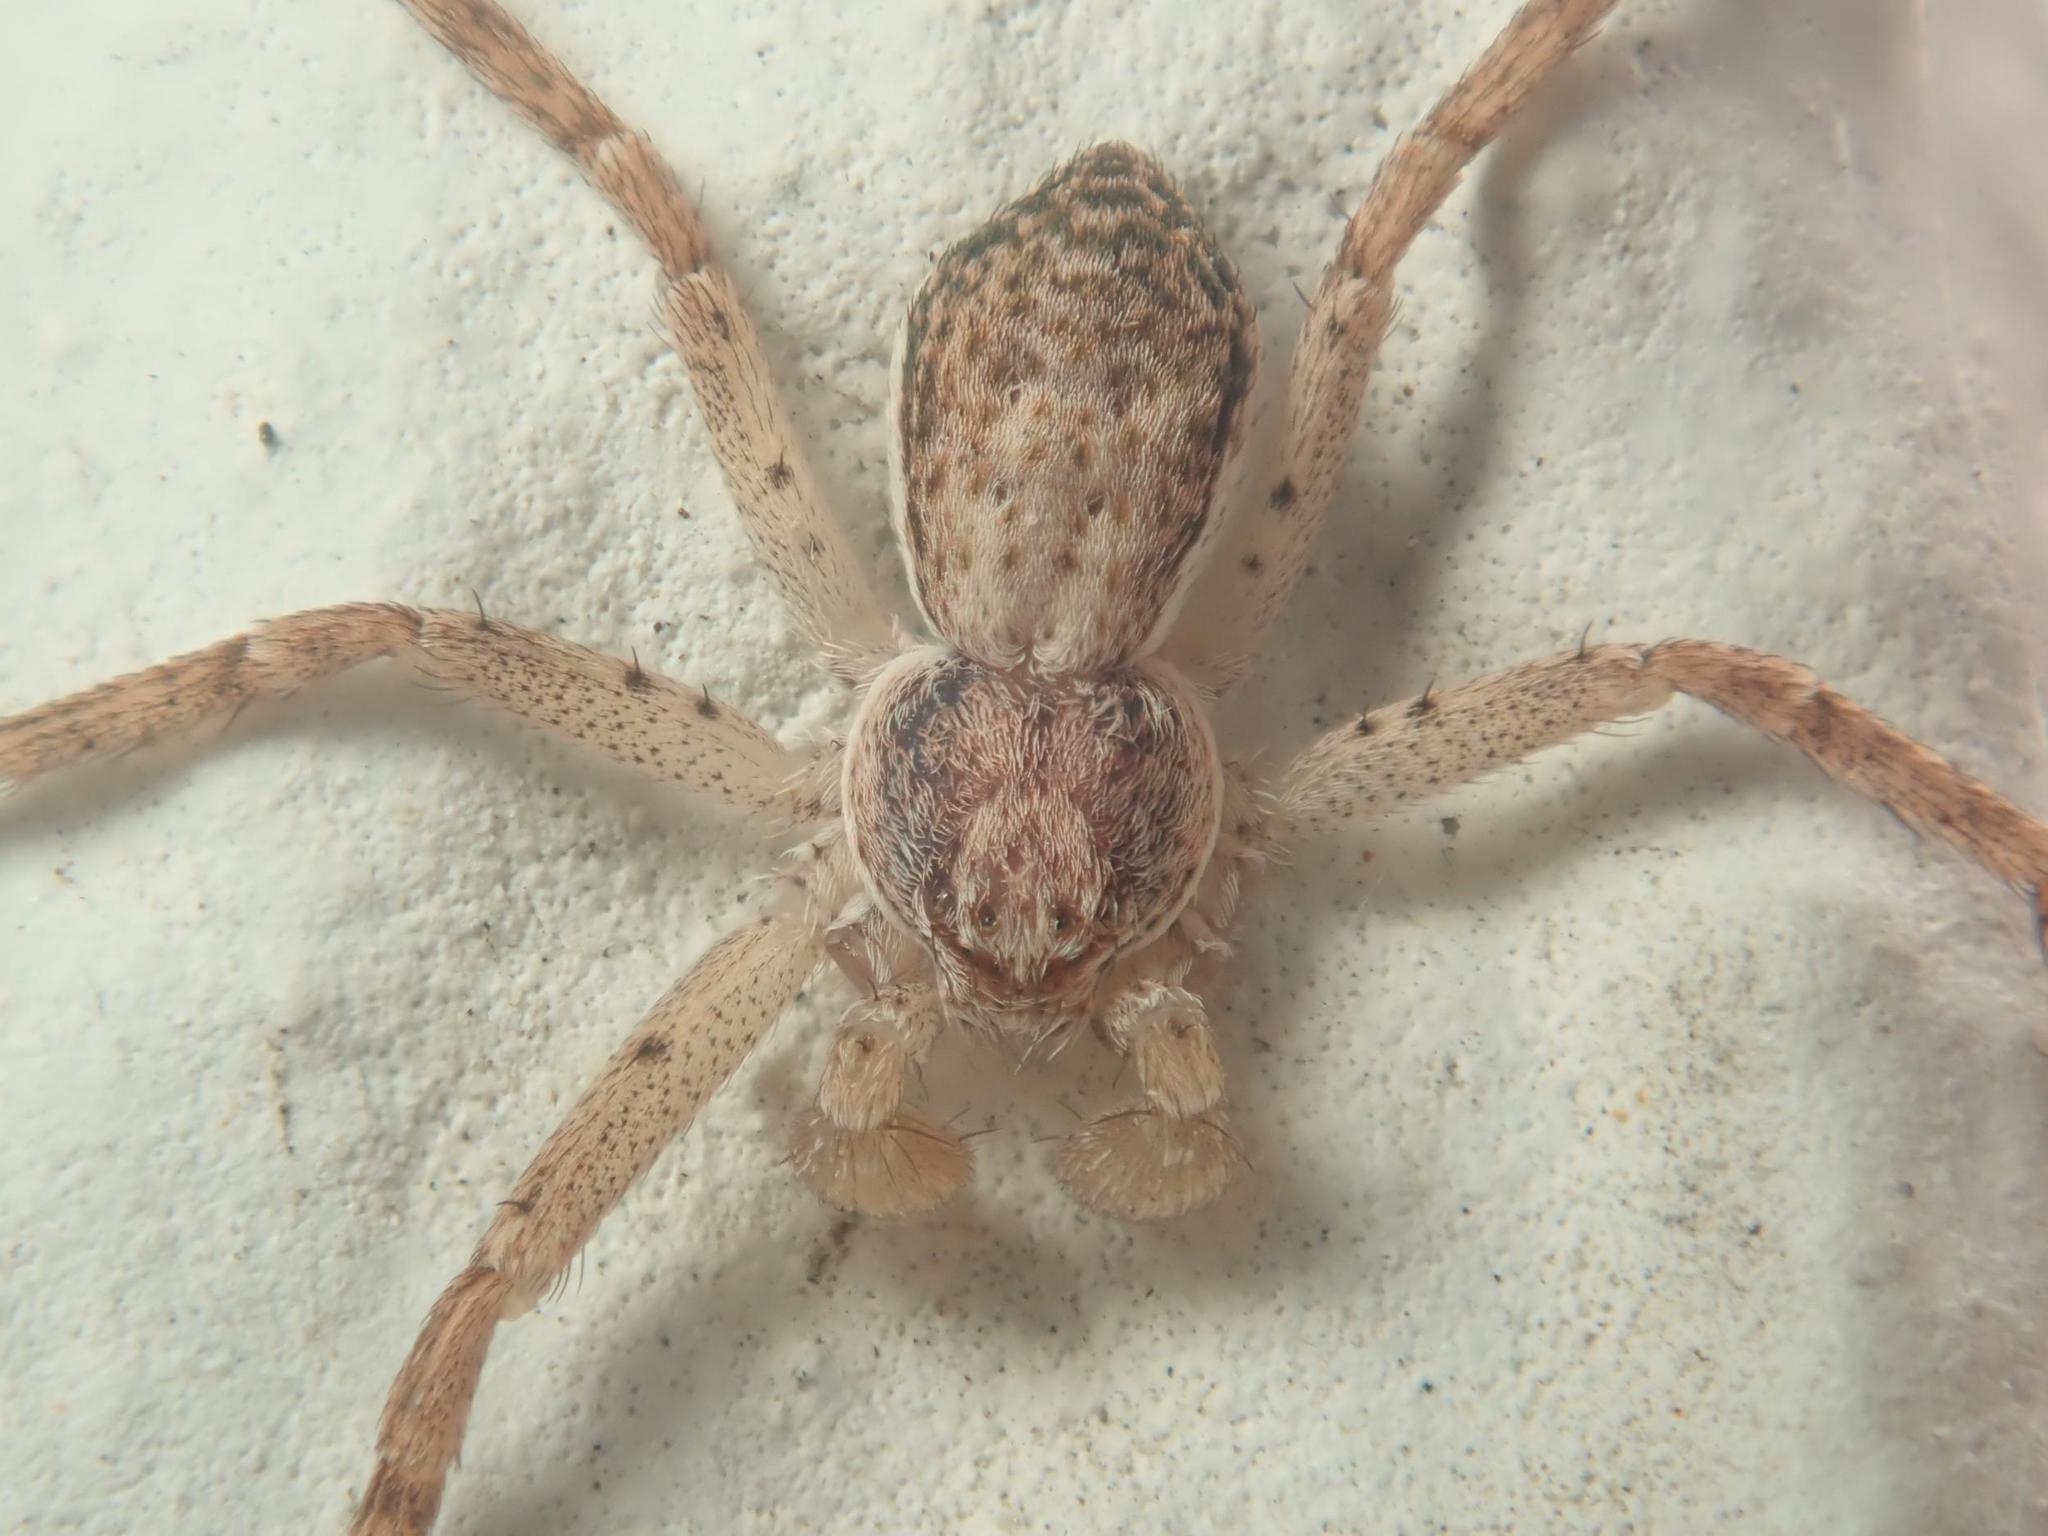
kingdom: Animalia
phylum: Arthropoda
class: Arachnida
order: Araneae
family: Philodromidae
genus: Philodromus
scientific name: Philodromus dispar
